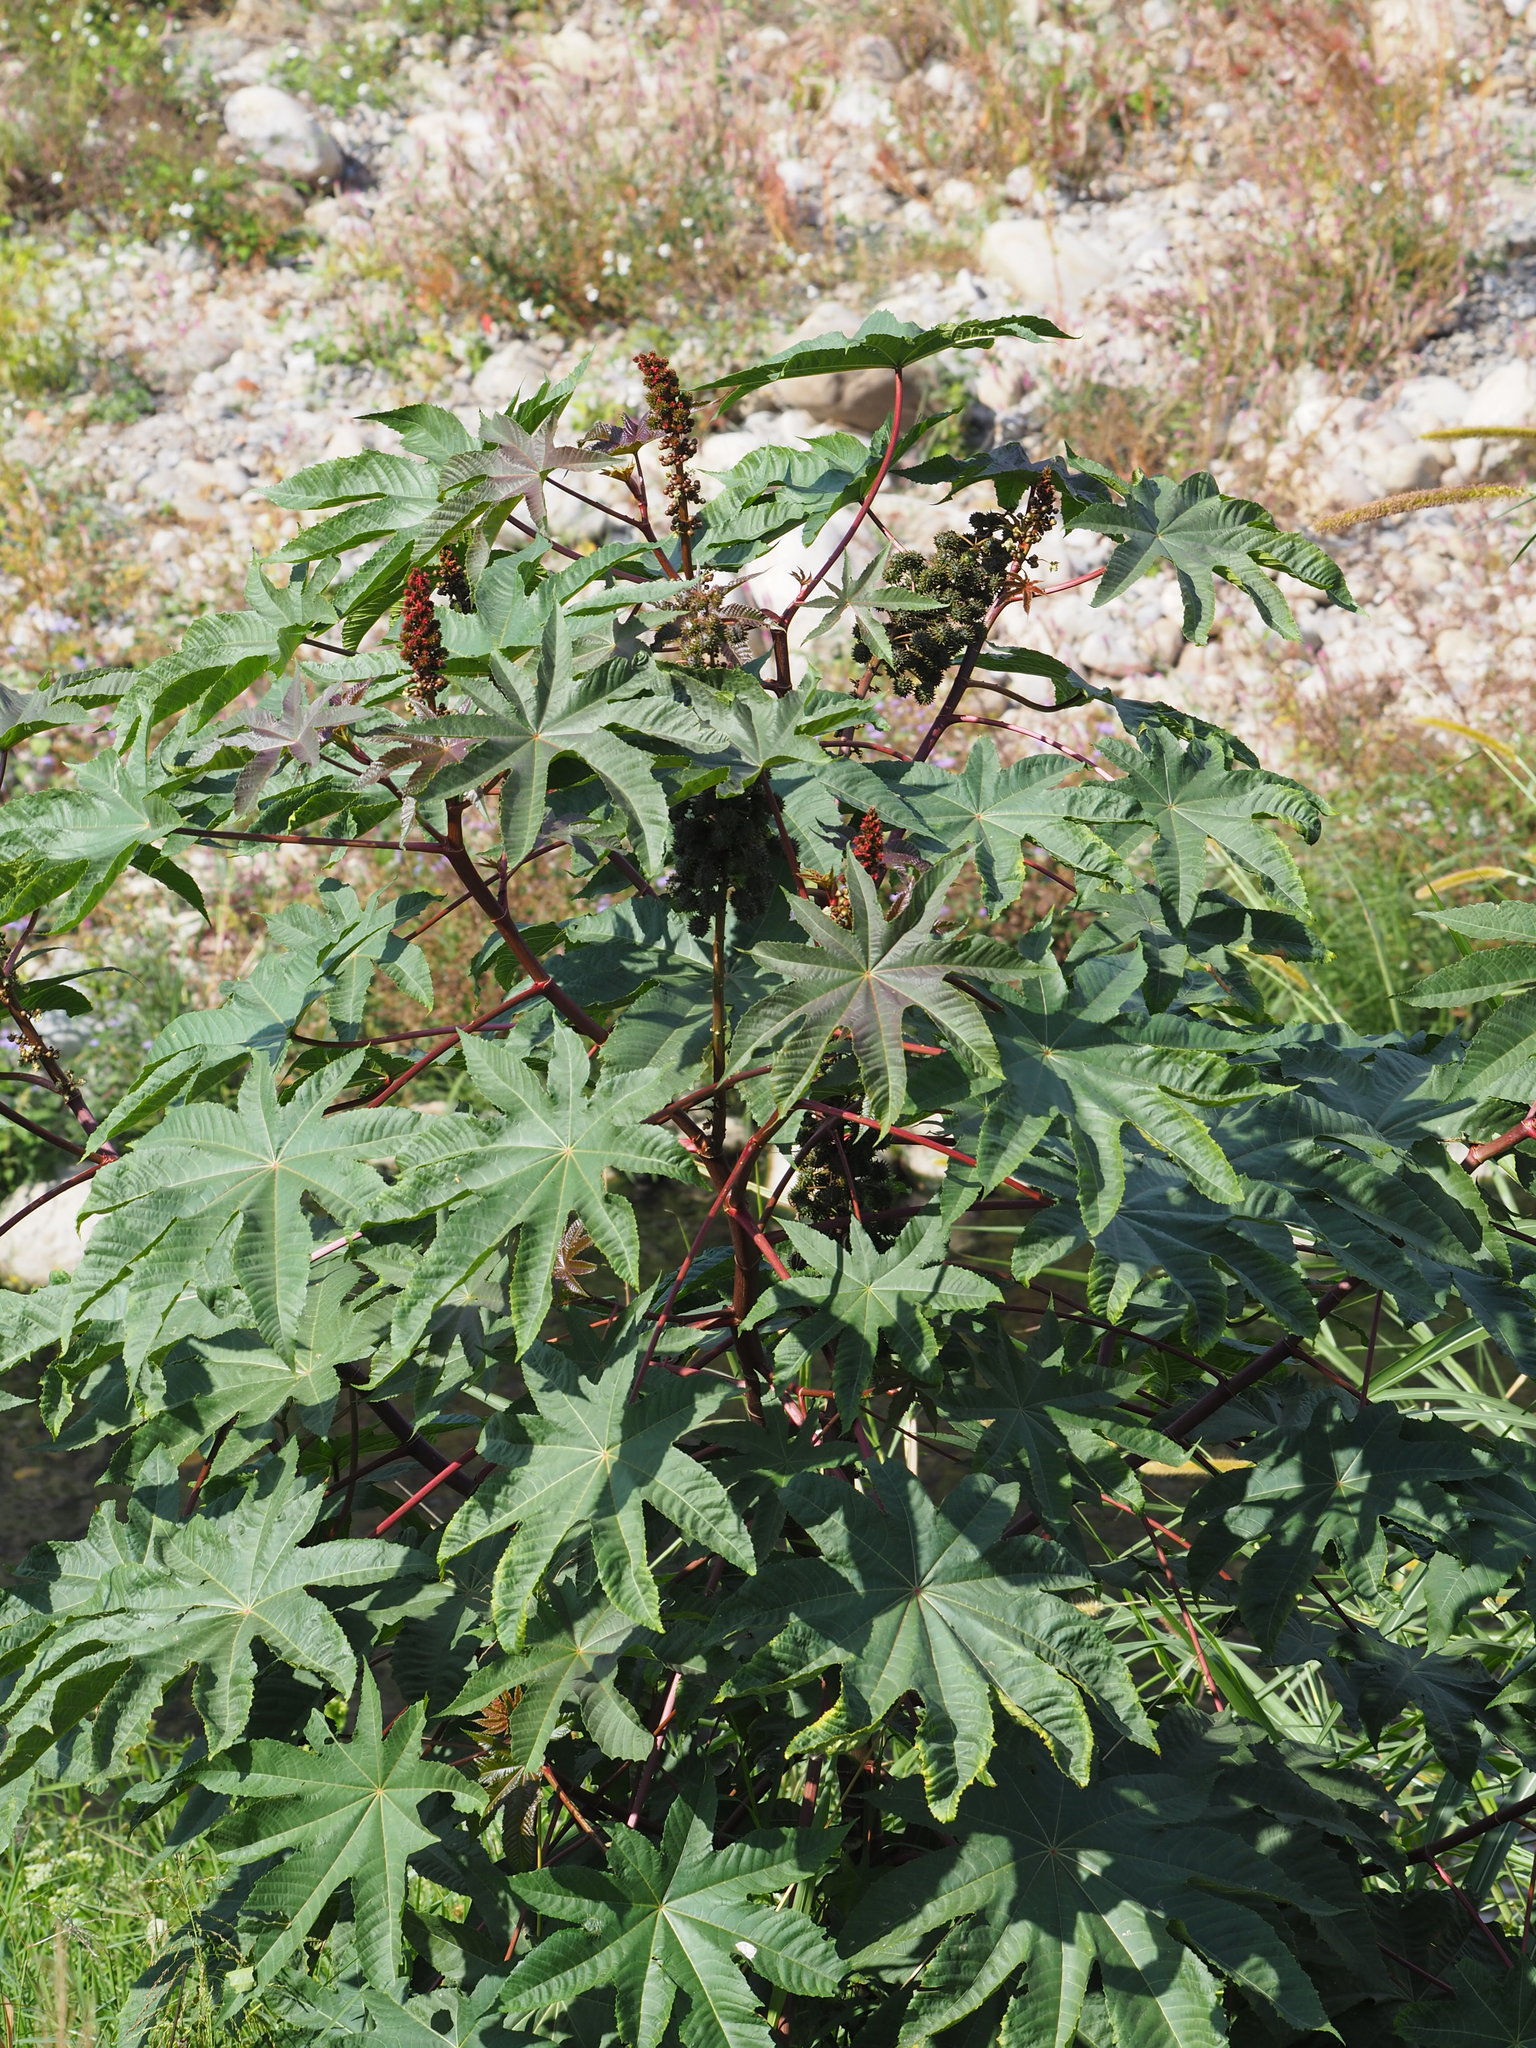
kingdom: Plantae
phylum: Tracheophyta
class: Magnoliopsida
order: Malpighiales
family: Euphorbiaceae
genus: Ricinus
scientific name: Ricinus communis
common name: Castor-oil-plant
